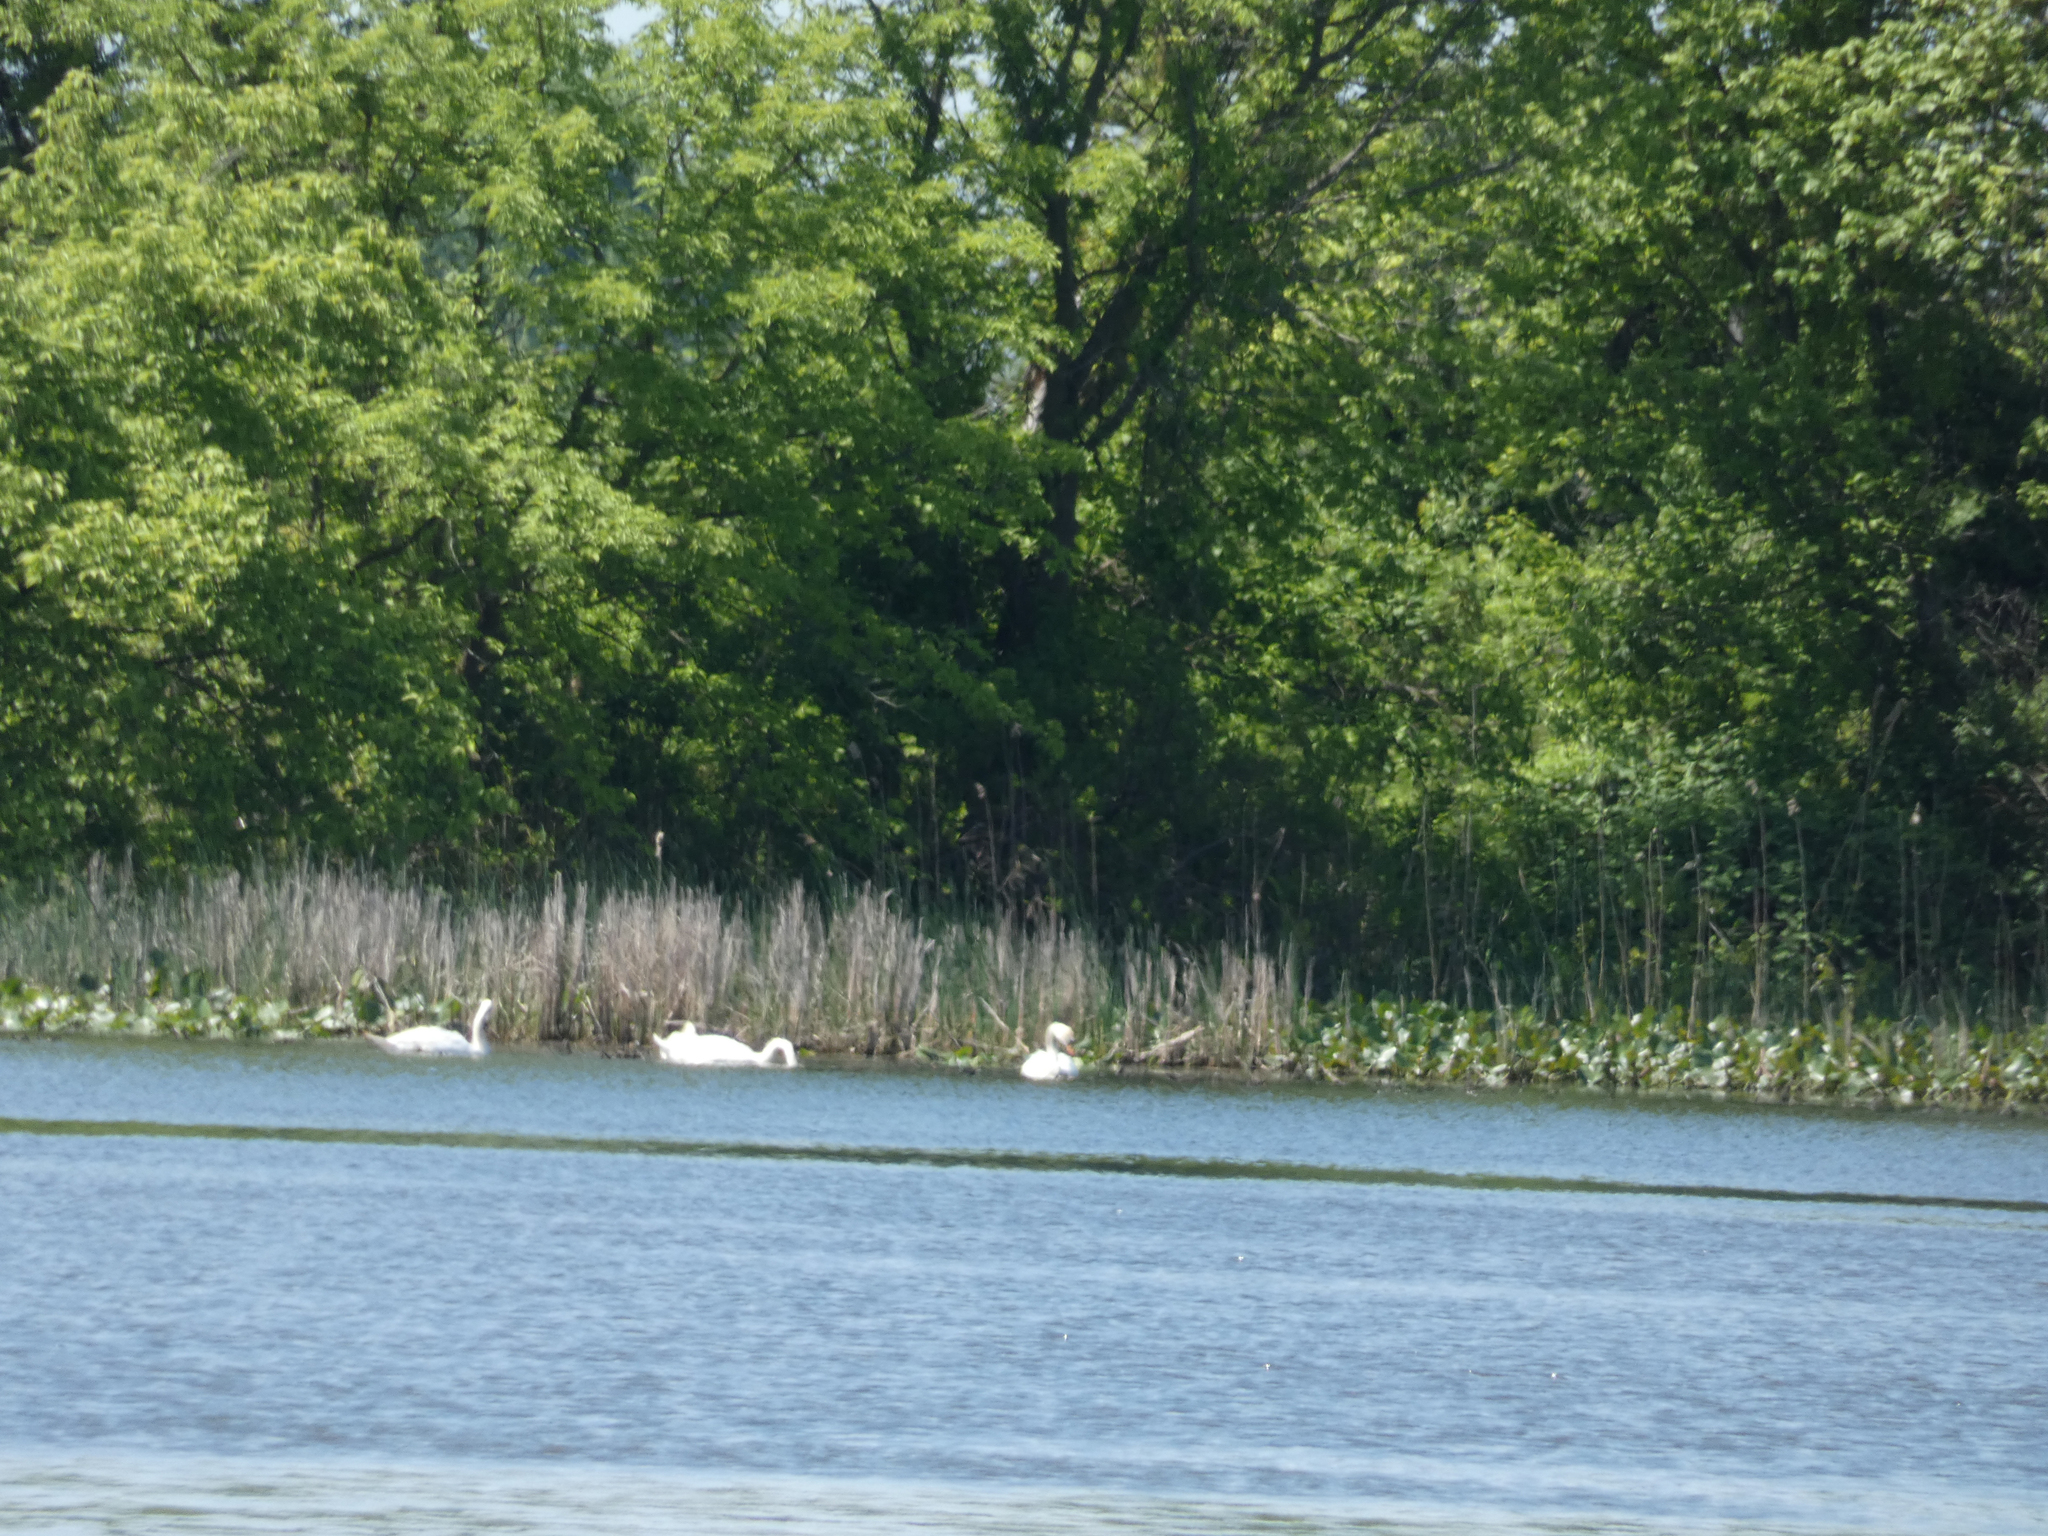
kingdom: Animalia
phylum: Chordata
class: Aves
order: Anseriformes
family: Anatidae
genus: Cygnus
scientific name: Cygnus olor
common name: Mute swan
